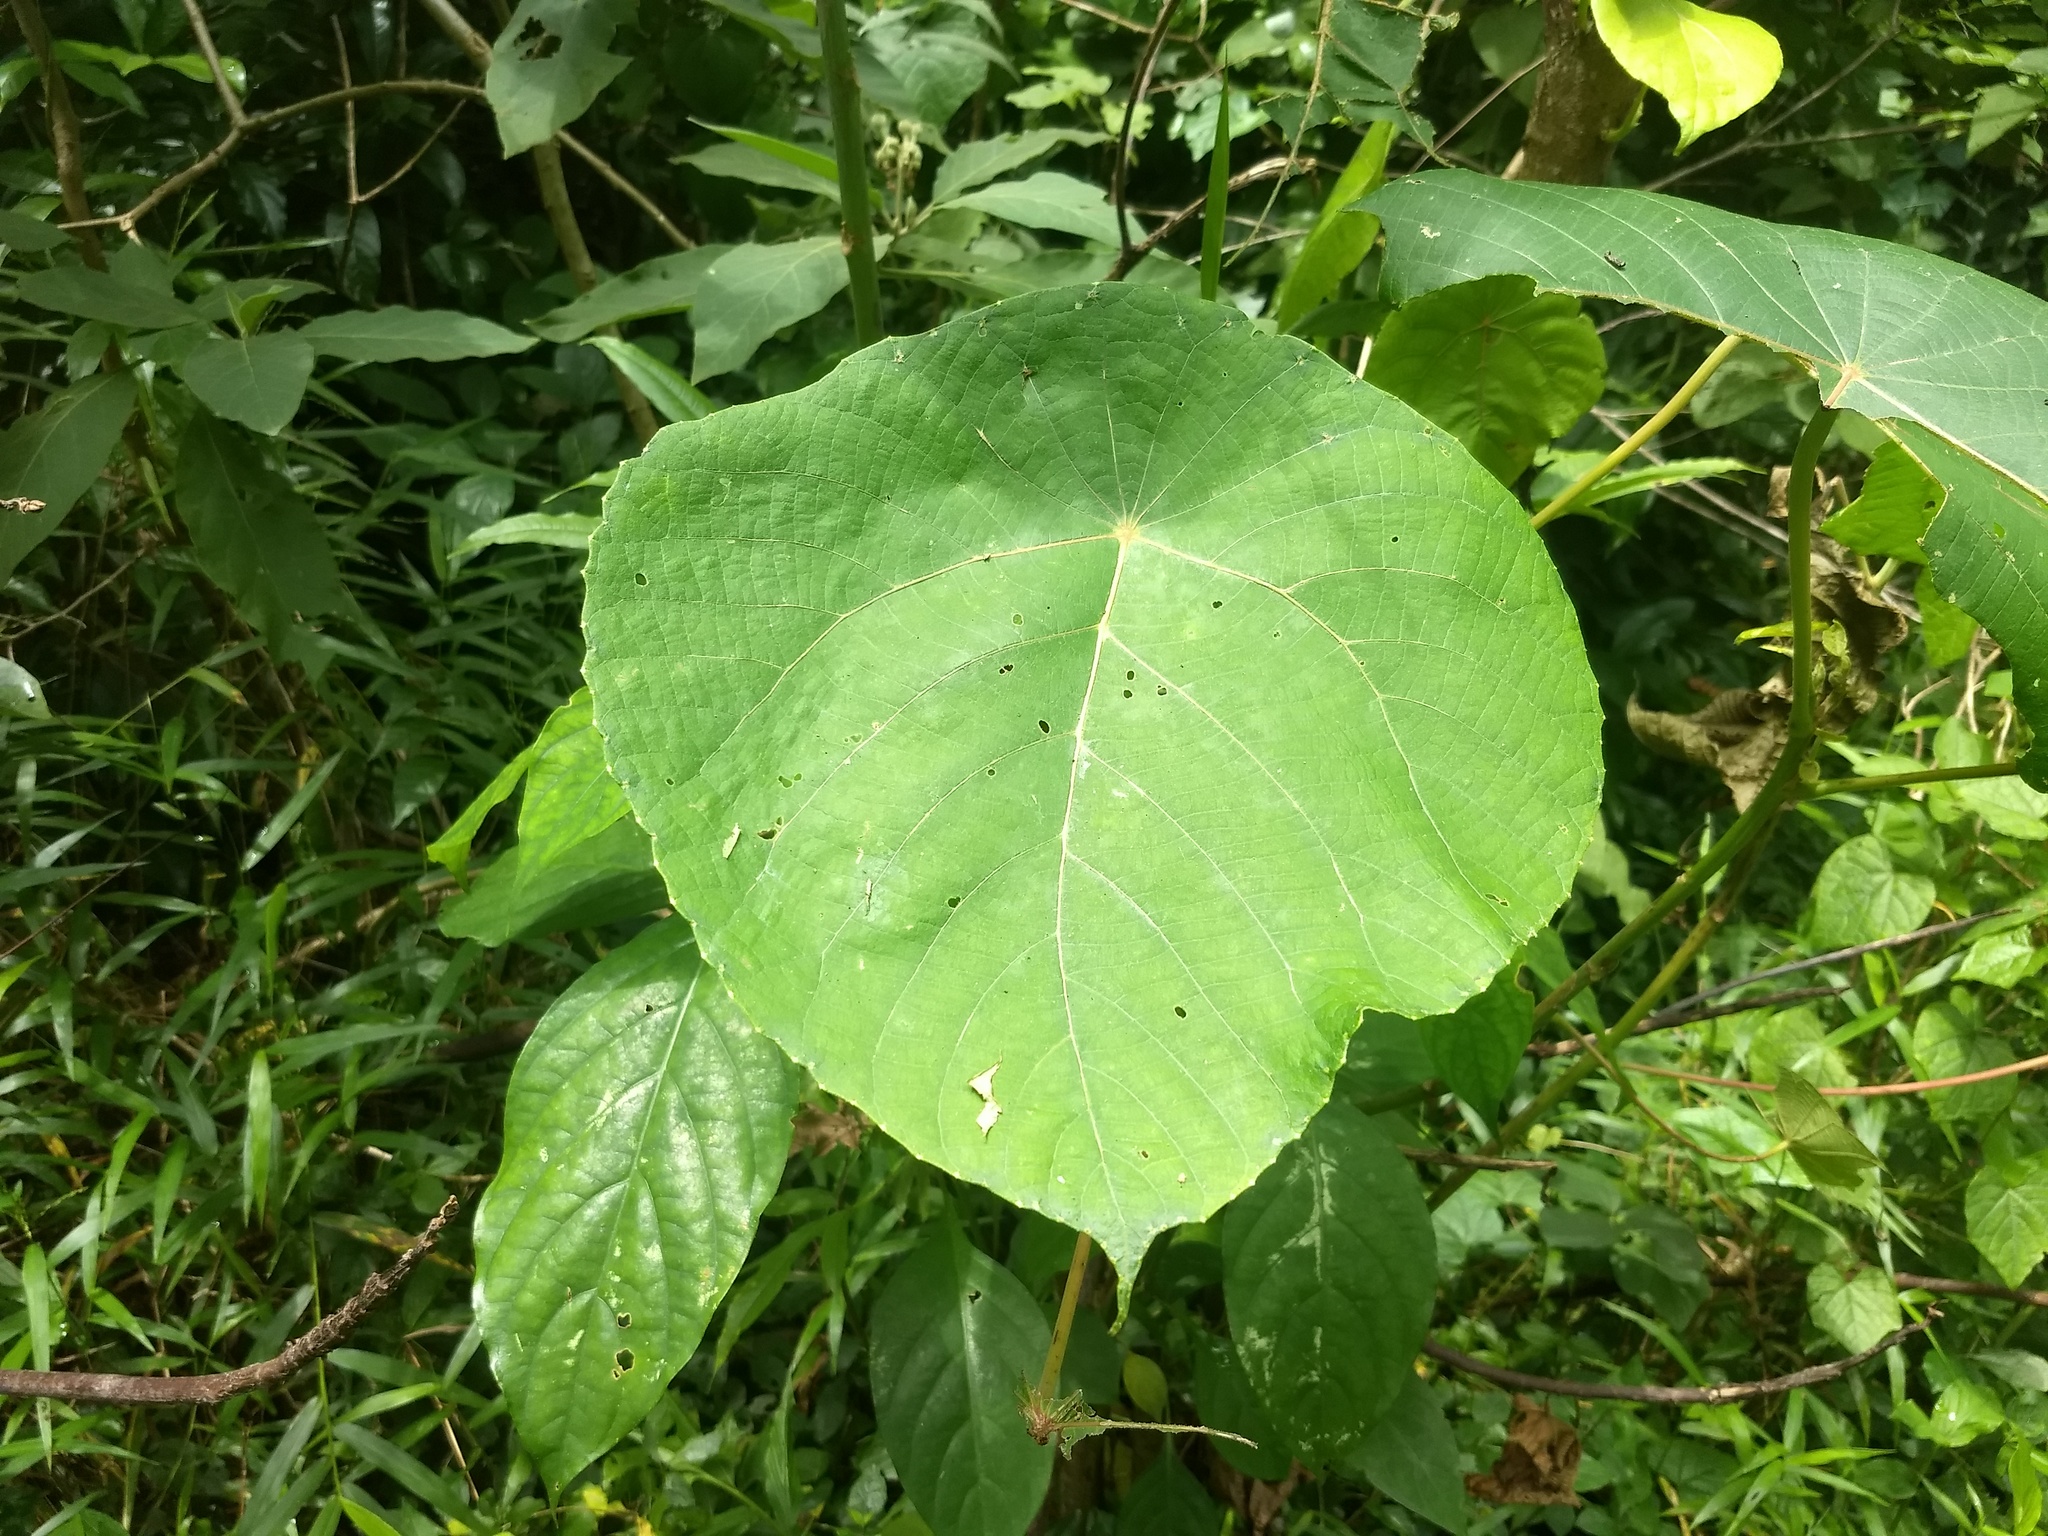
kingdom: Plantae
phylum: Tracheophyta
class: Magnoliopsida
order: Malpighiales
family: Euphorbiaceae
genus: Macaranga
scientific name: Macaranga peltata
